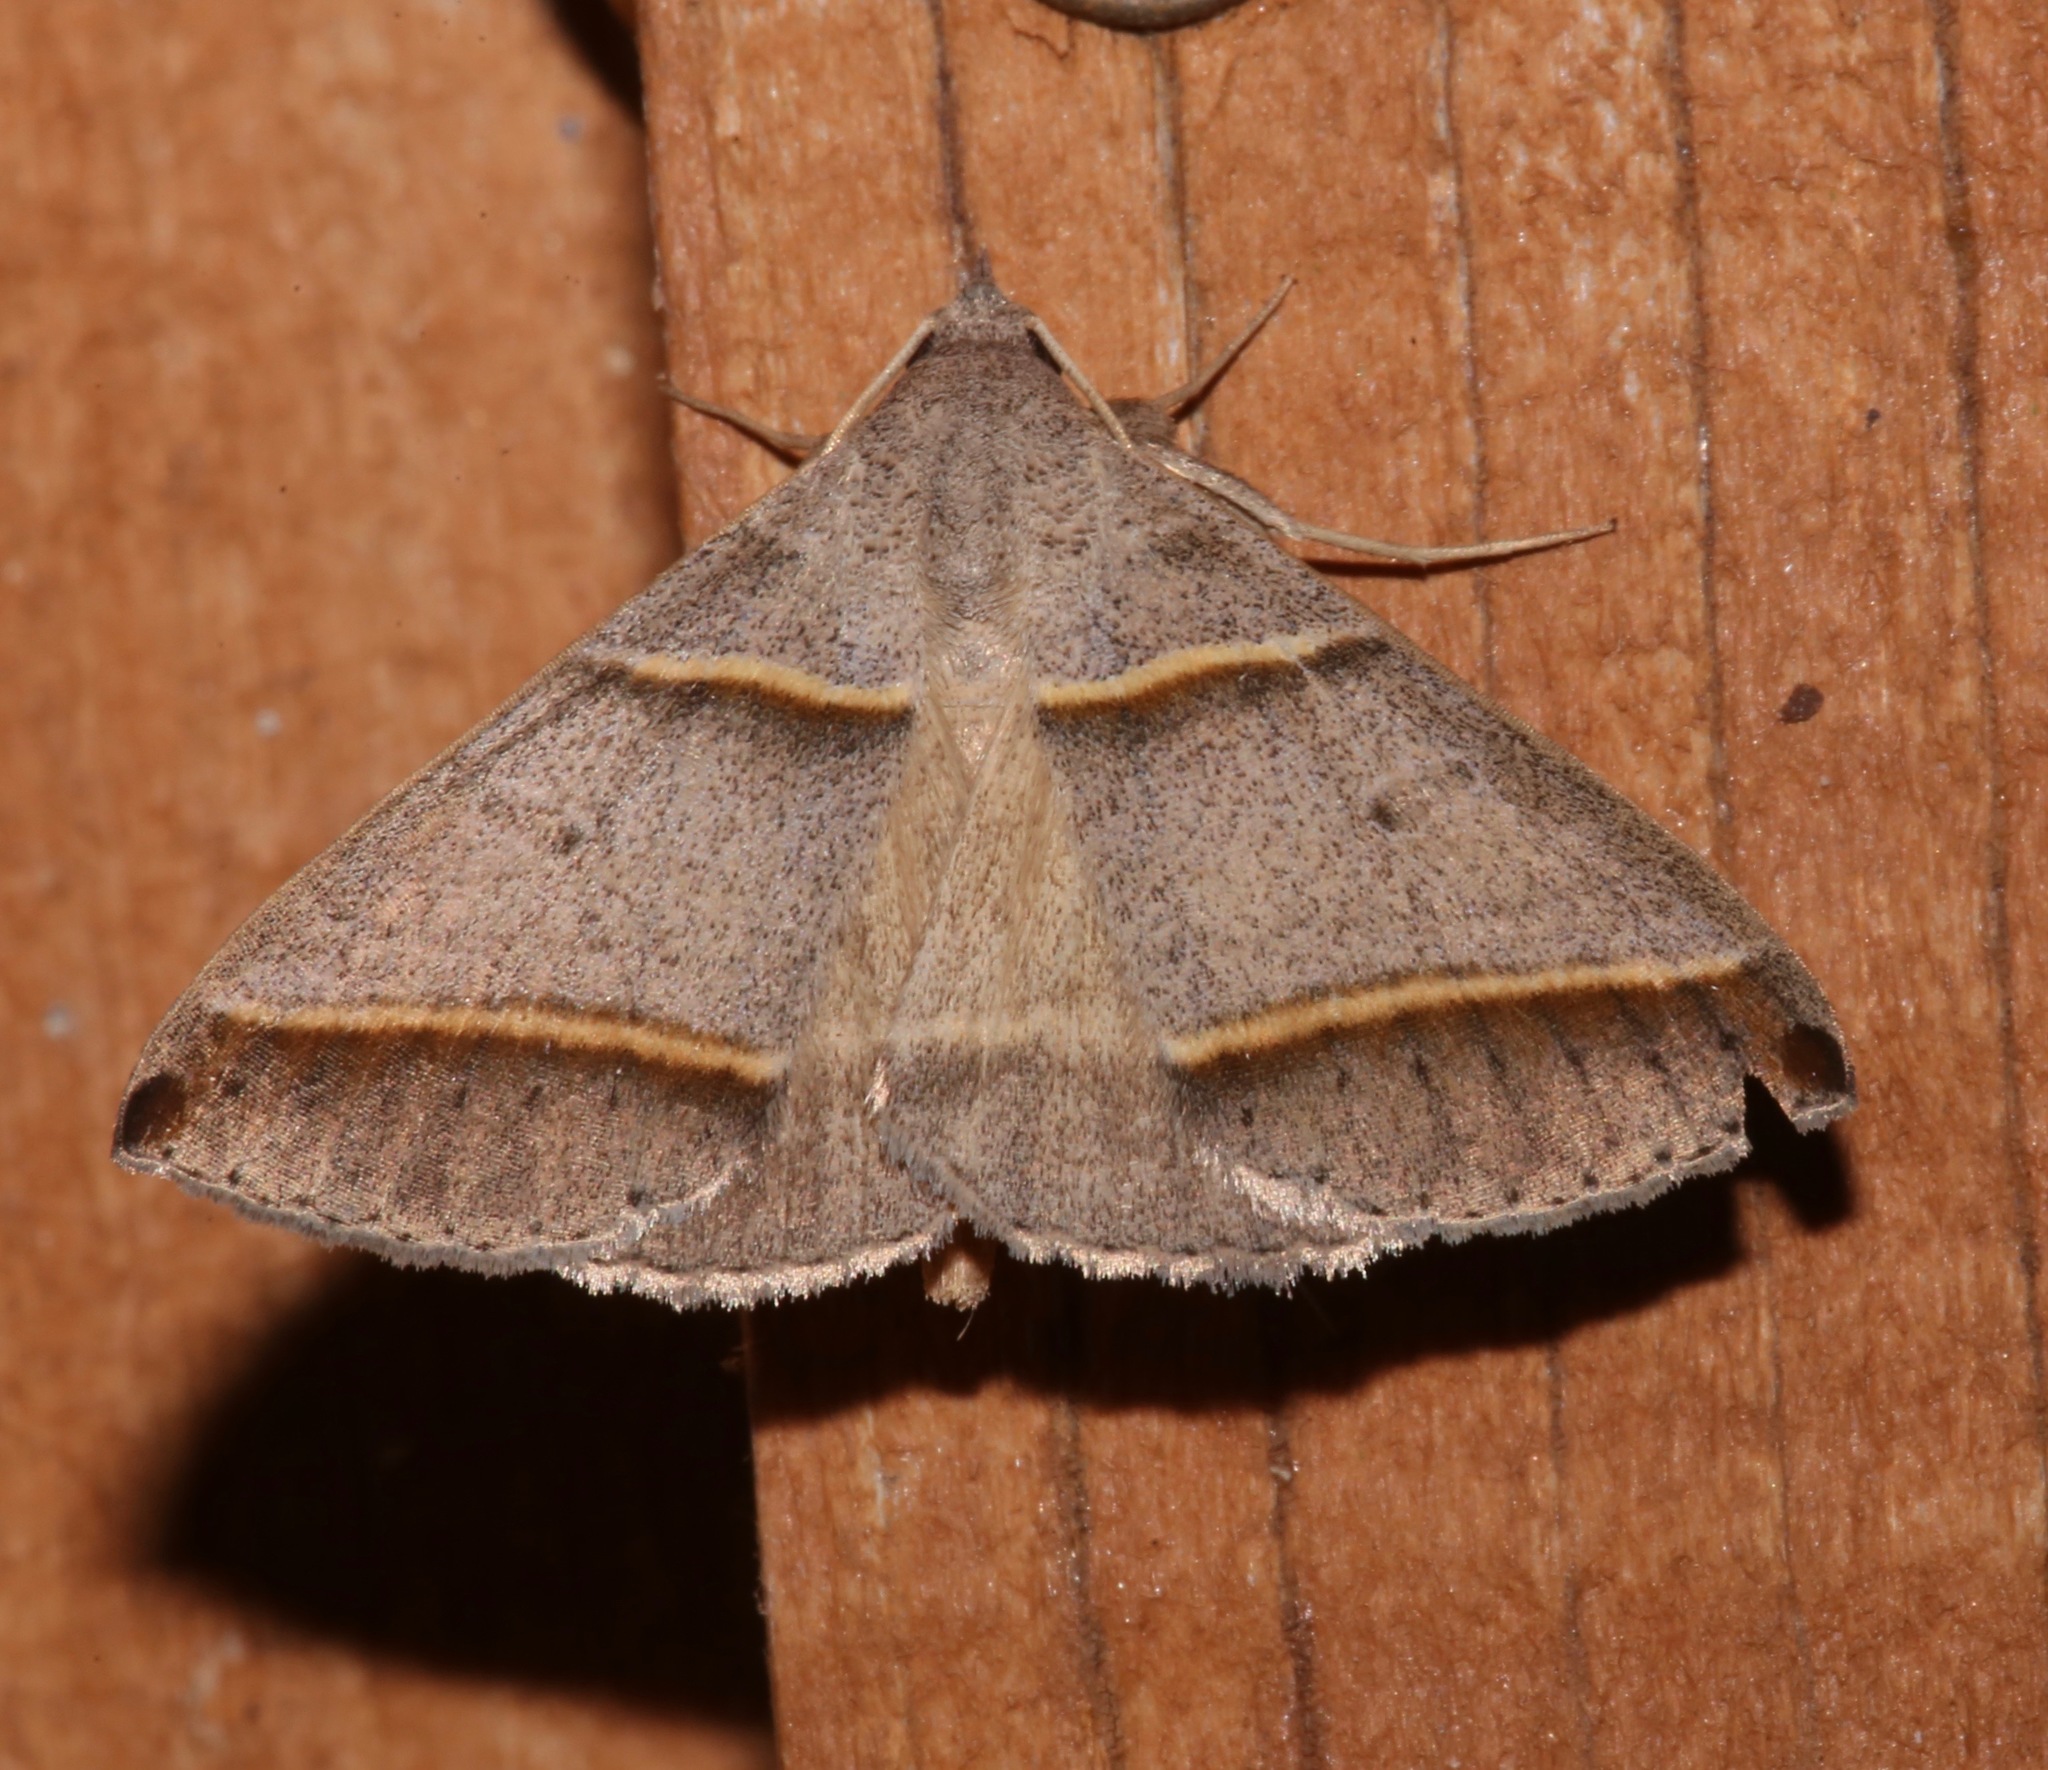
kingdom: Animalia
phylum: Arthropoda
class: Insecta
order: Lepidoptera
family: Erebidae
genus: Ptichodis
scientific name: Ptichodis vinculum
